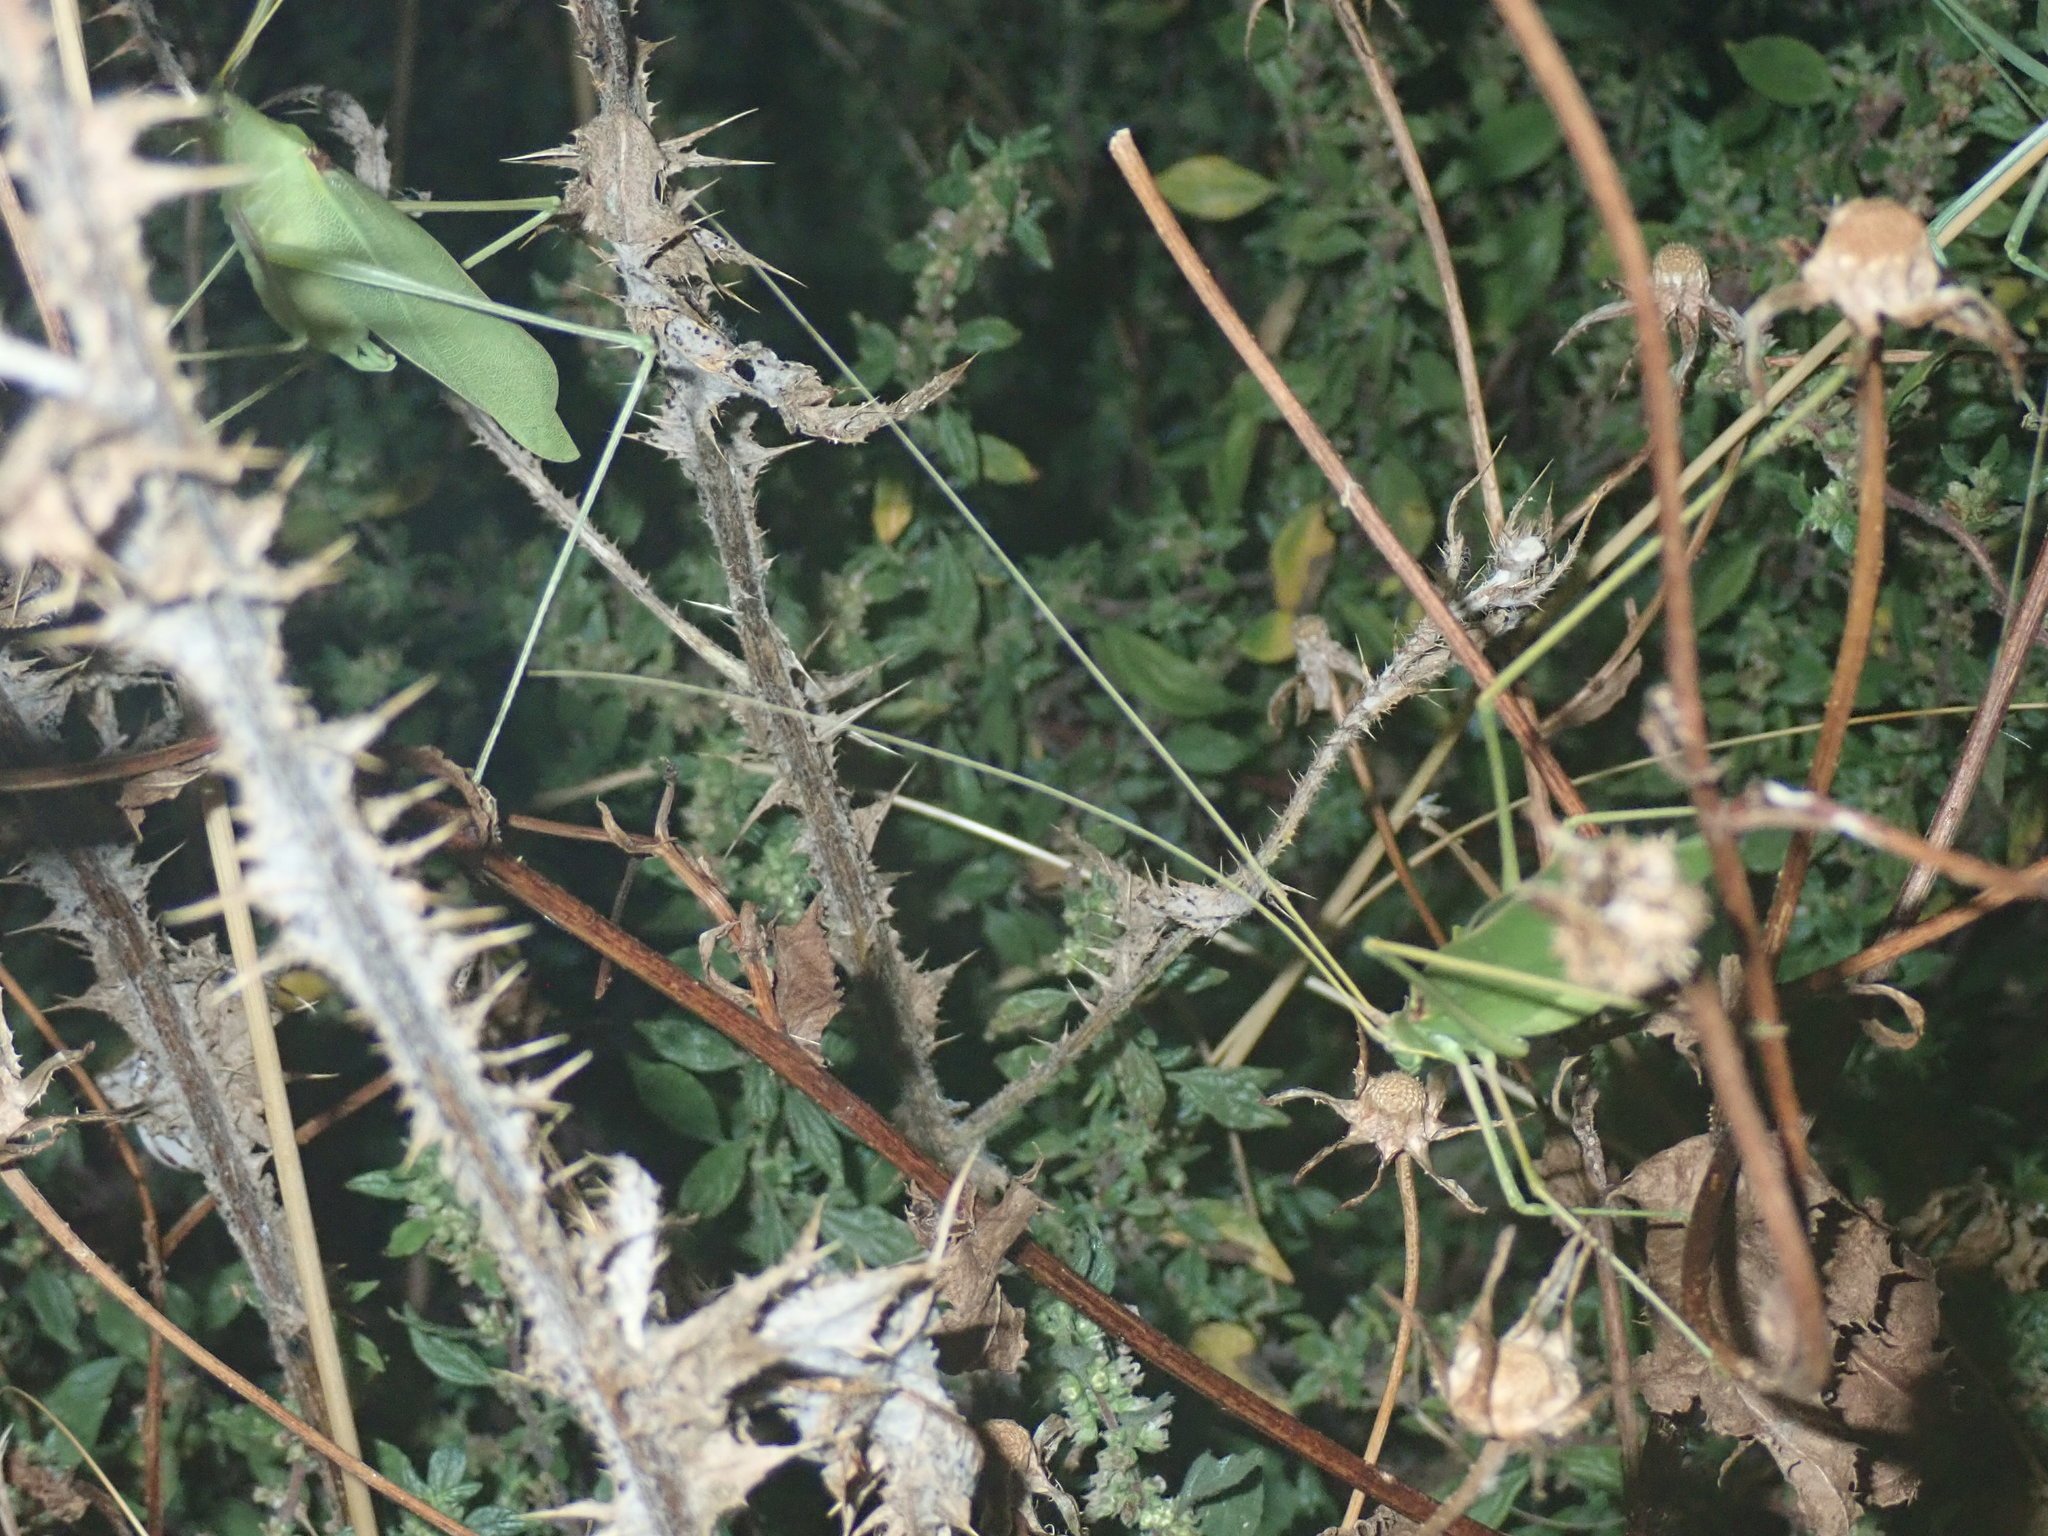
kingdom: Animalia
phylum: Arthropoda
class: Insecta
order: Orthoptera
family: Tettigoniidae
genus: Acrometopa
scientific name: Acrometopa macropoda
